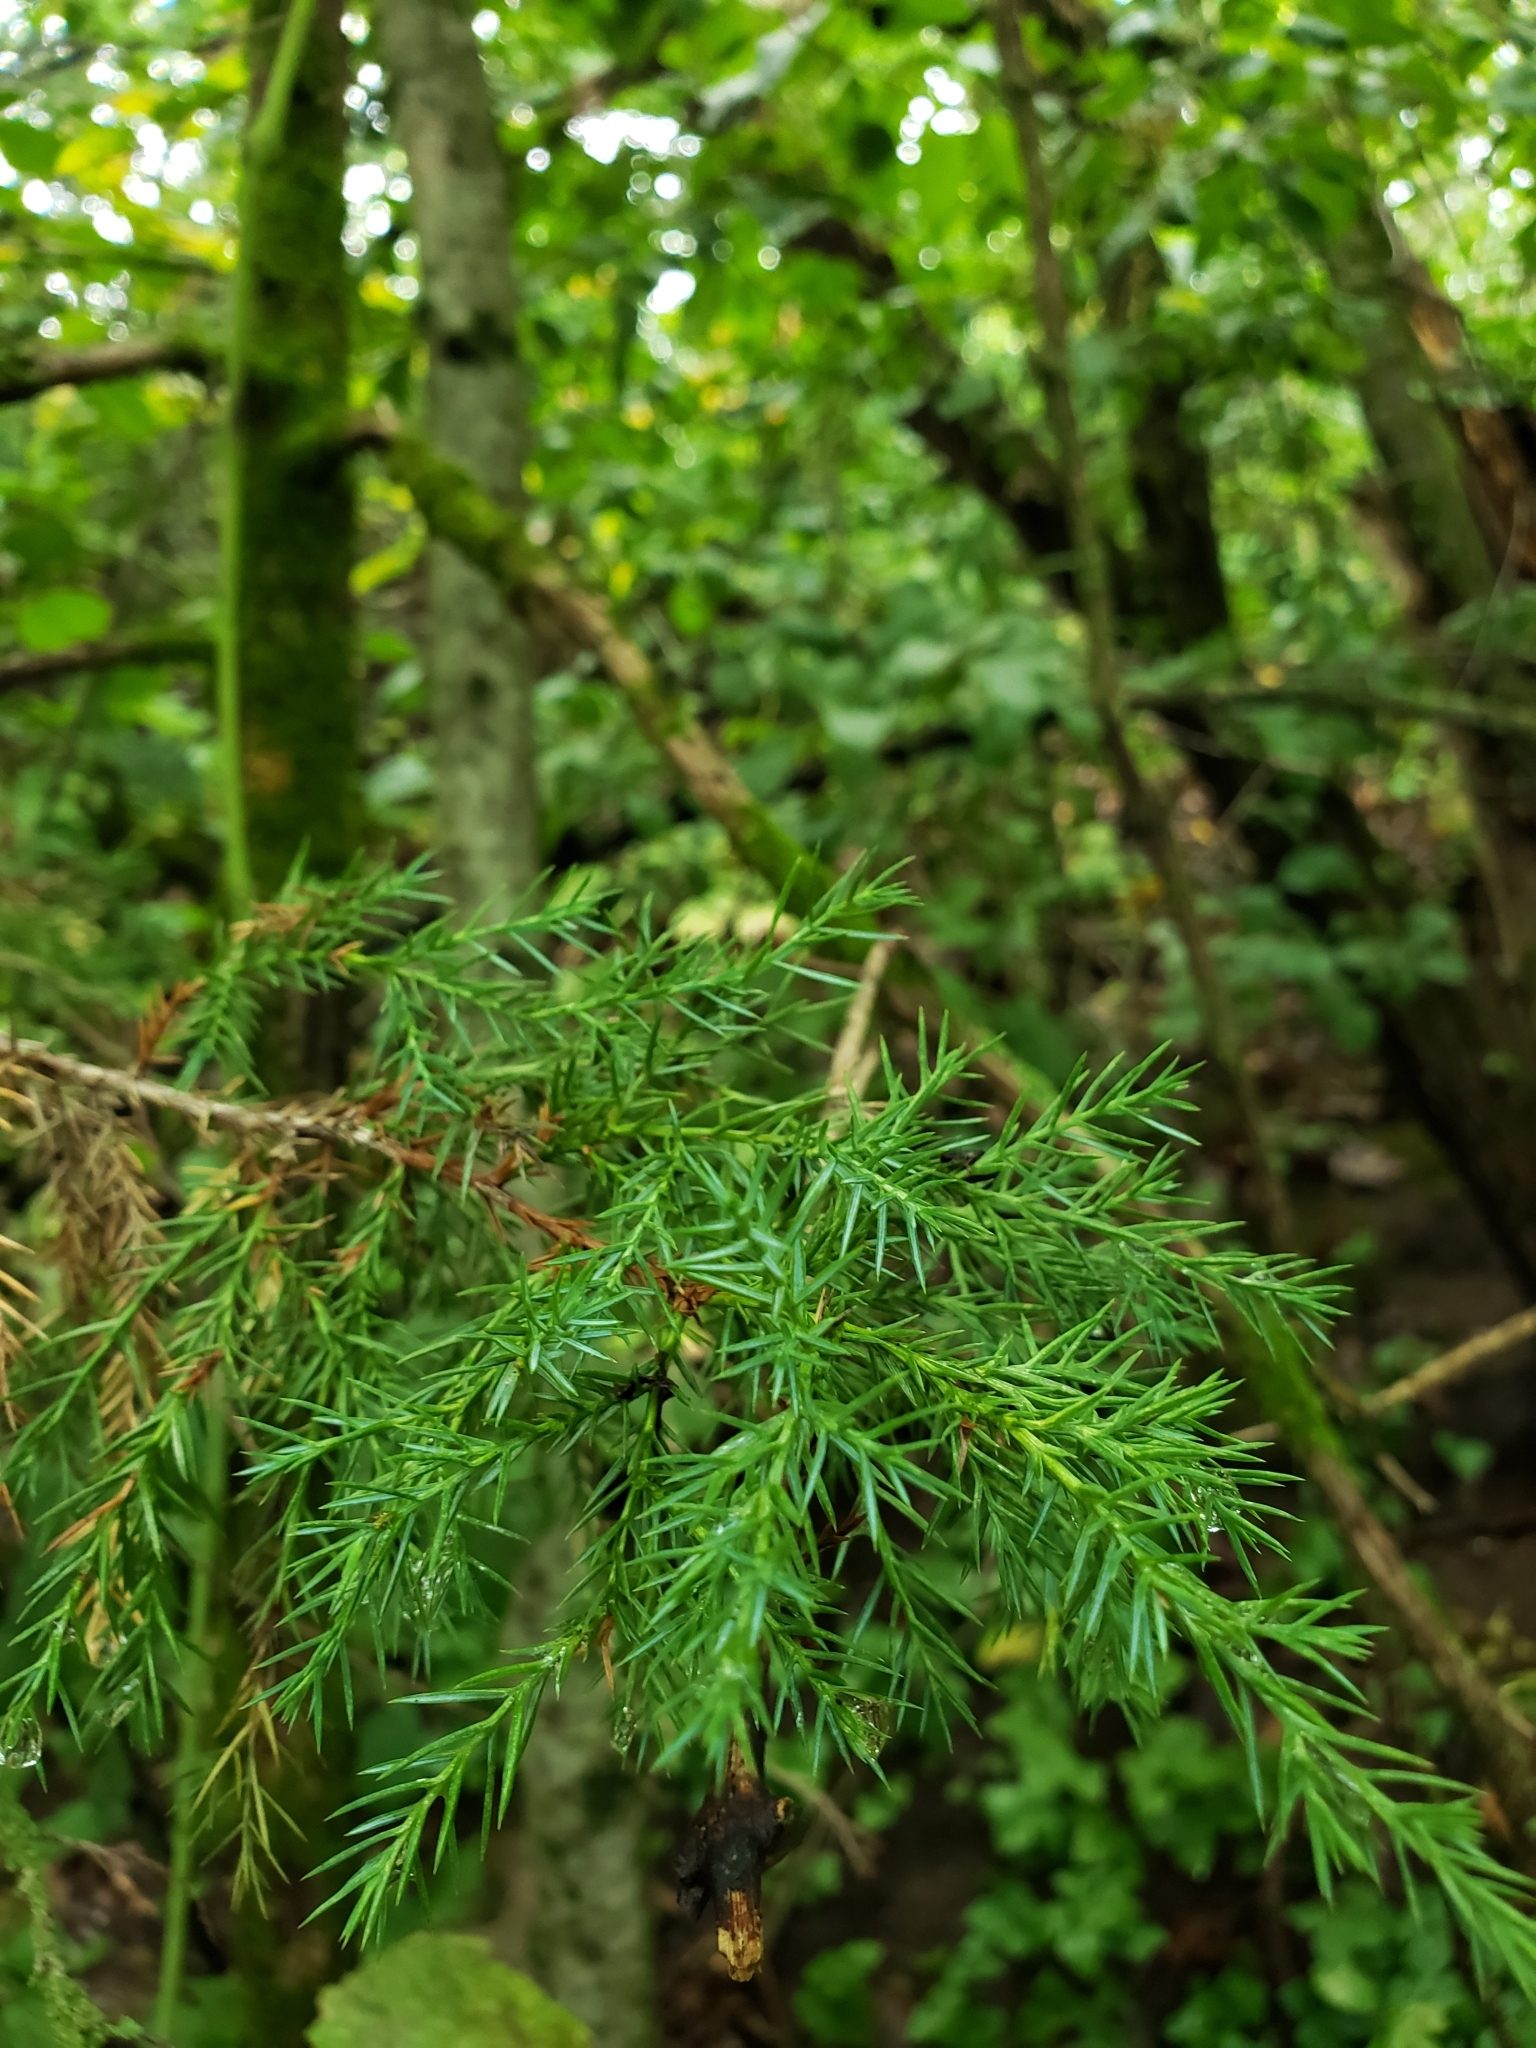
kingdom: Plantae
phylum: Tracheophyta
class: Pinopsida
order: Pinales
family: Cupressaceae
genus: Juniperus
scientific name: Juniperus virginiana
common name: Red juniper
